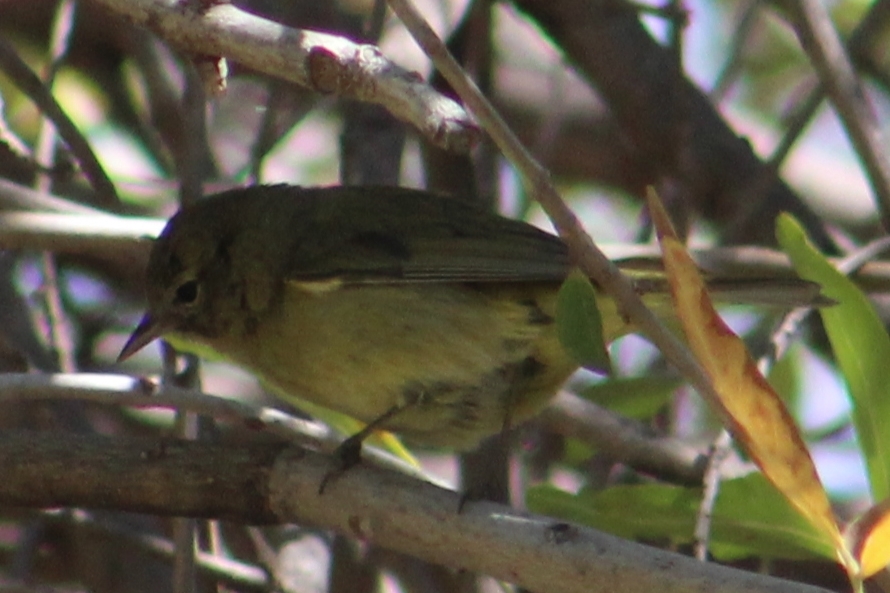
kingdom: Animalia
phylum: Chordata
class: Aves
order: Passeriformes
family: Parulidae
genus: Leiothlypis
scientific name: Leiothlypis celata
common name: Orange-crowned warbler
